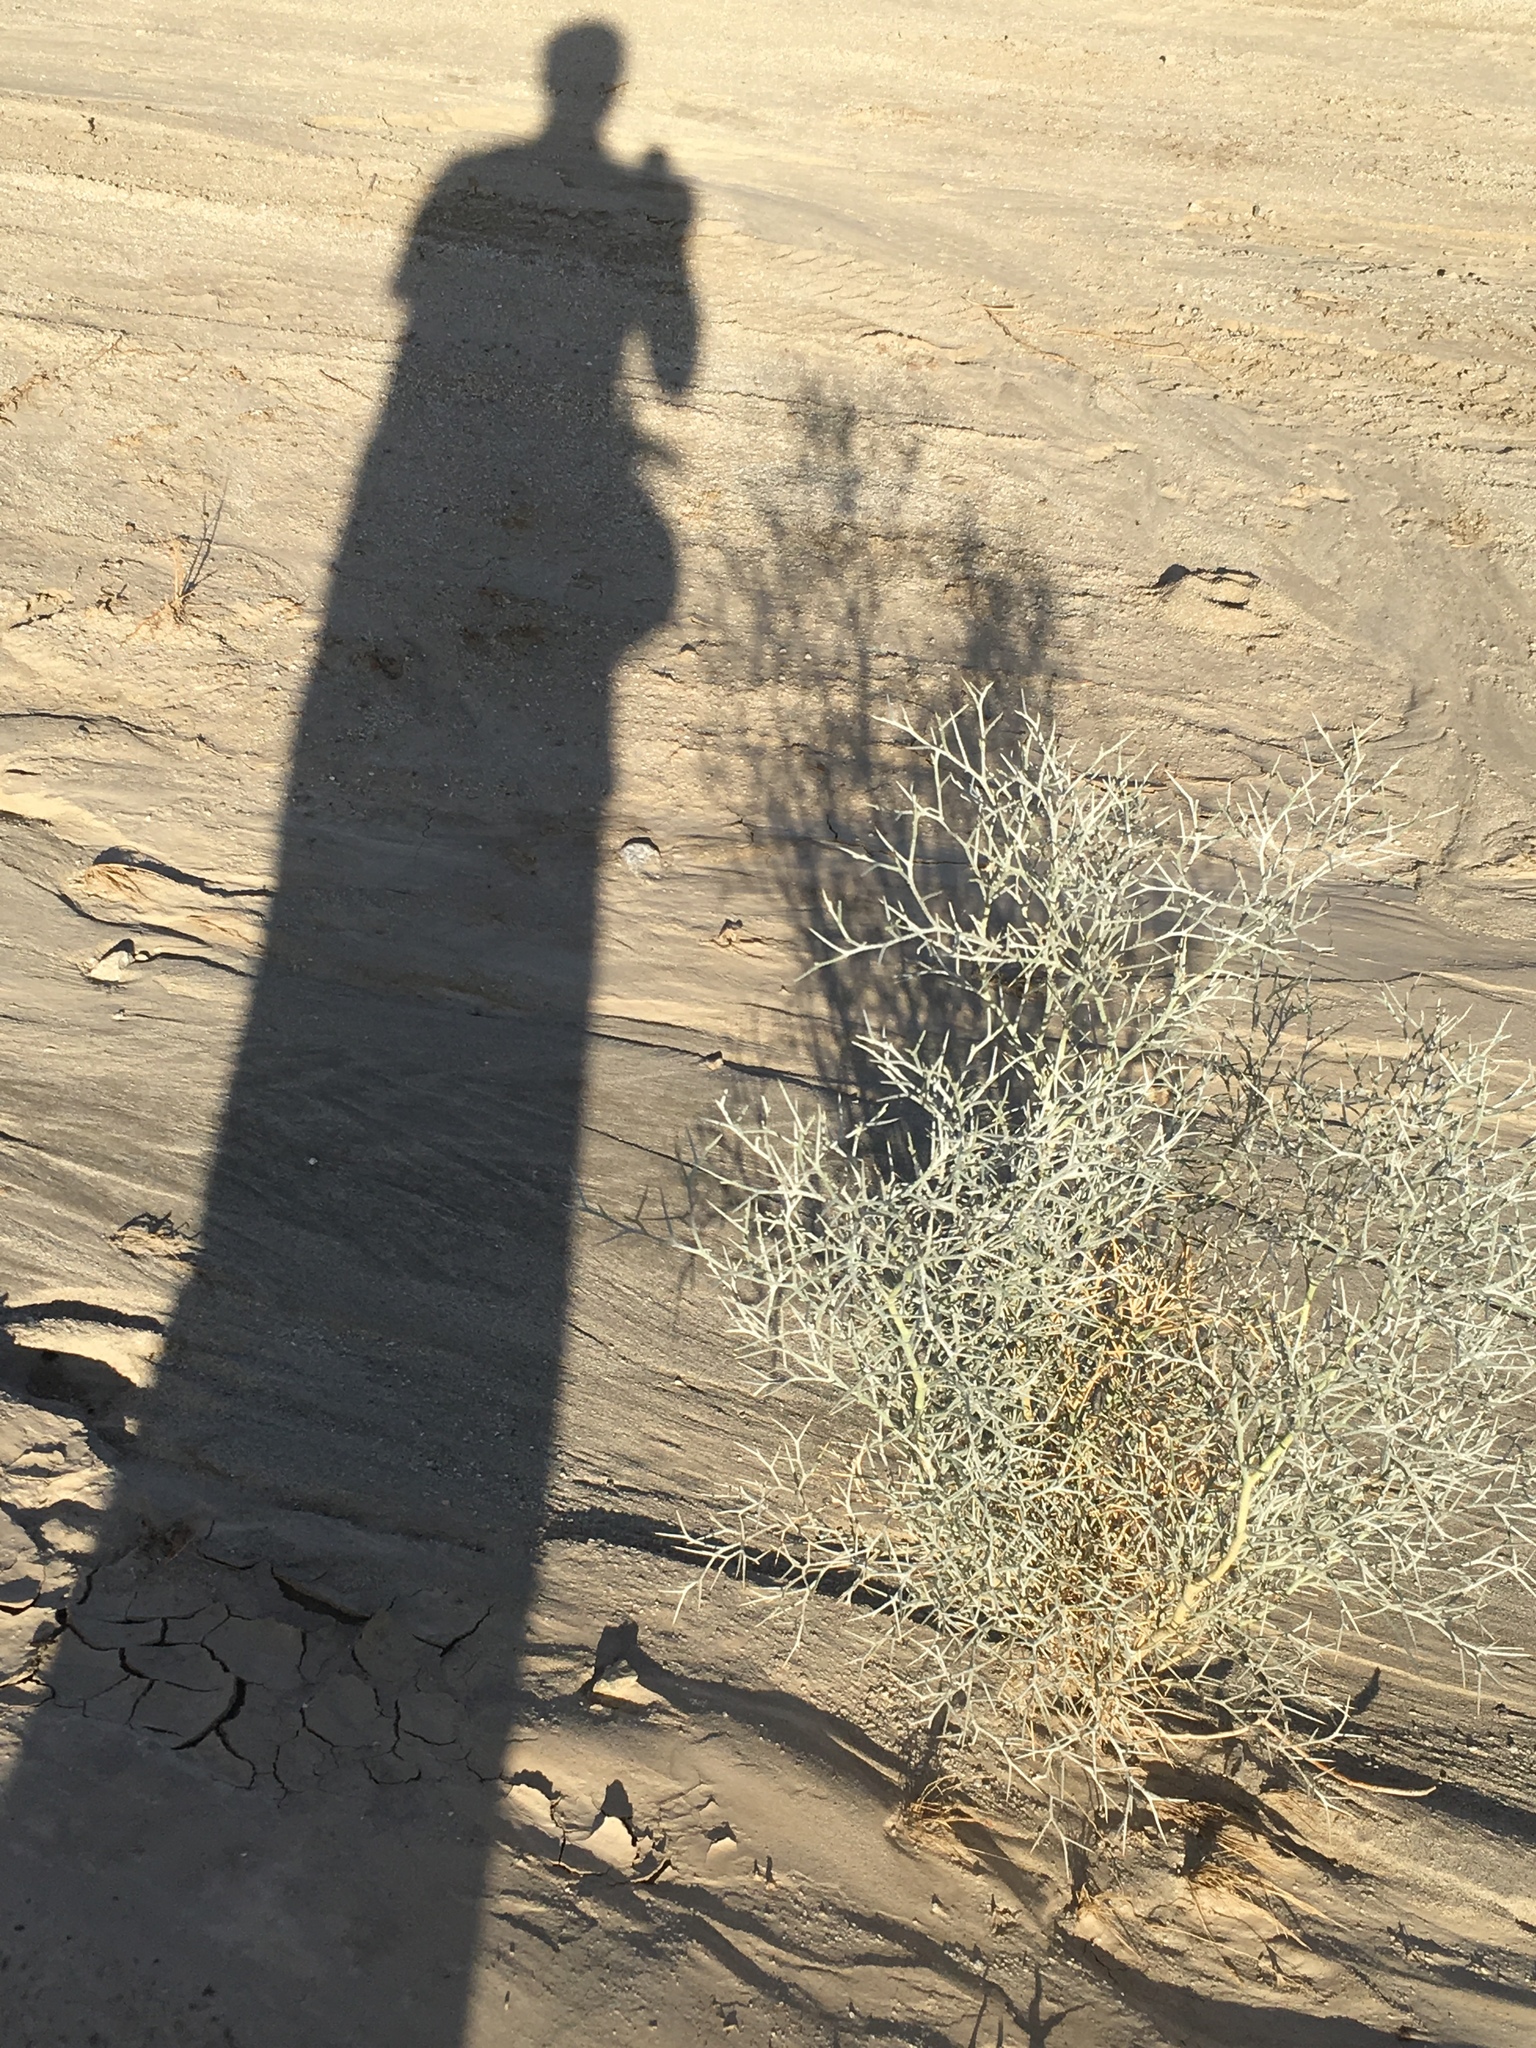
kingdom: Plantae
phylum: Tracheophyta
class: Magnoliopsida
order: Fabales
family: Fabaceae
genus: Psorothamnus
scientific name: Psorothamnus spinosus
